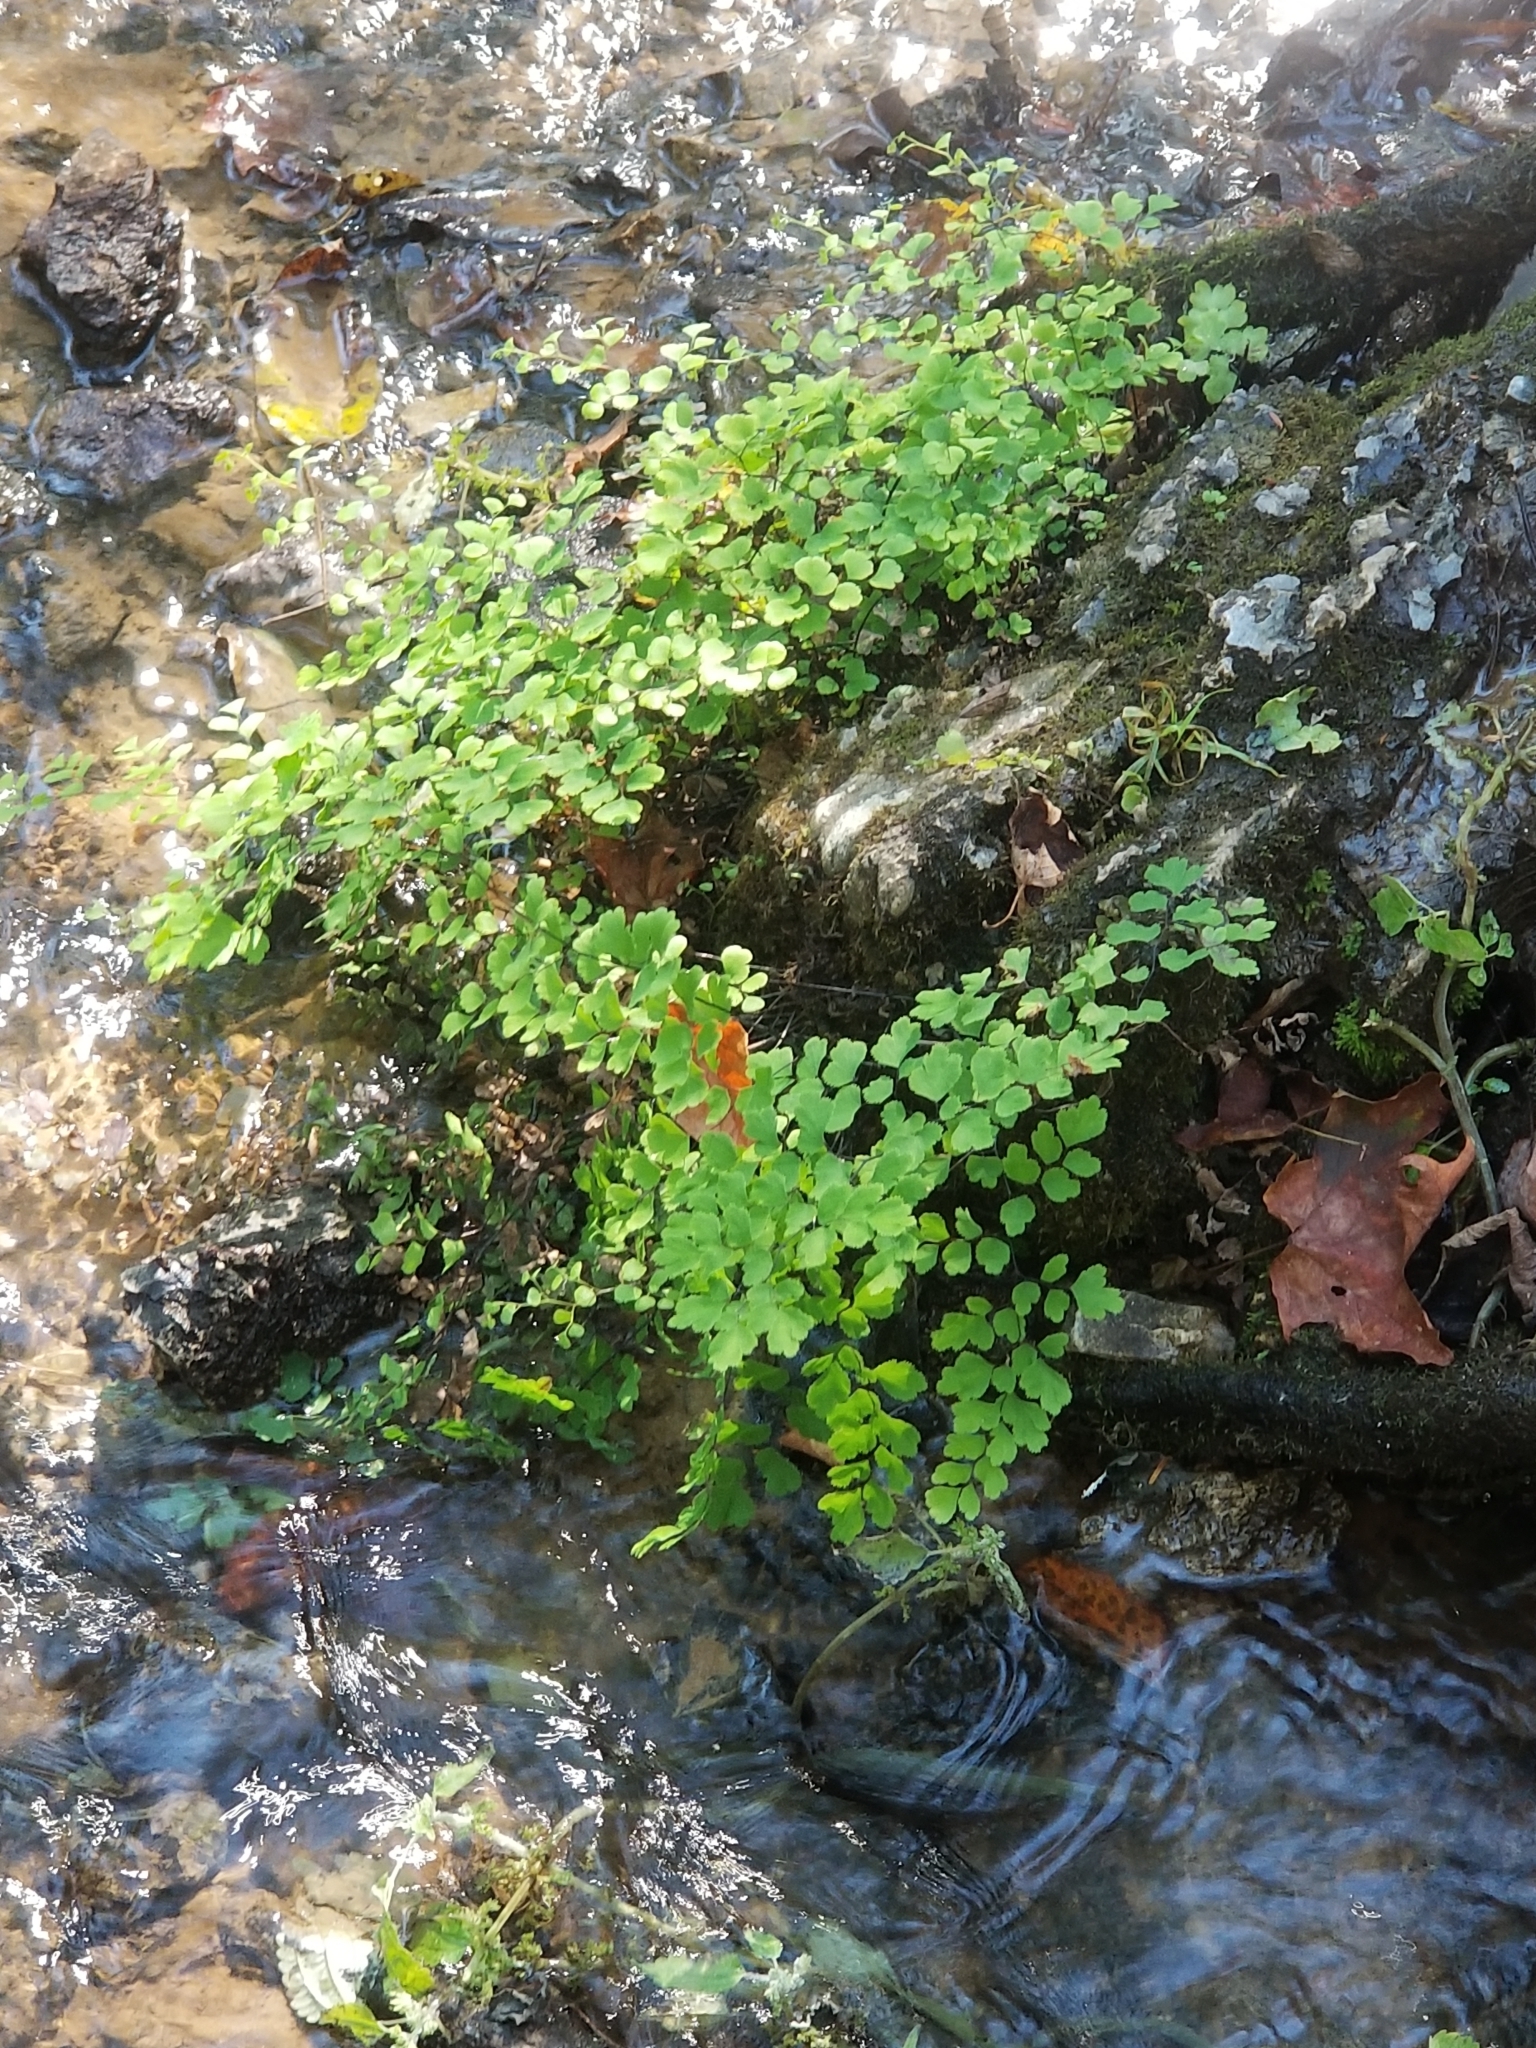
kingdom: Plantae
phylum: Tracheophyta
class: Polypodiopsida
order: Polypodiales
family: Pteridaceae
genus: Adiantum
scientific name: Adiantum capillus-veneris
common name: Maidenhair fern
